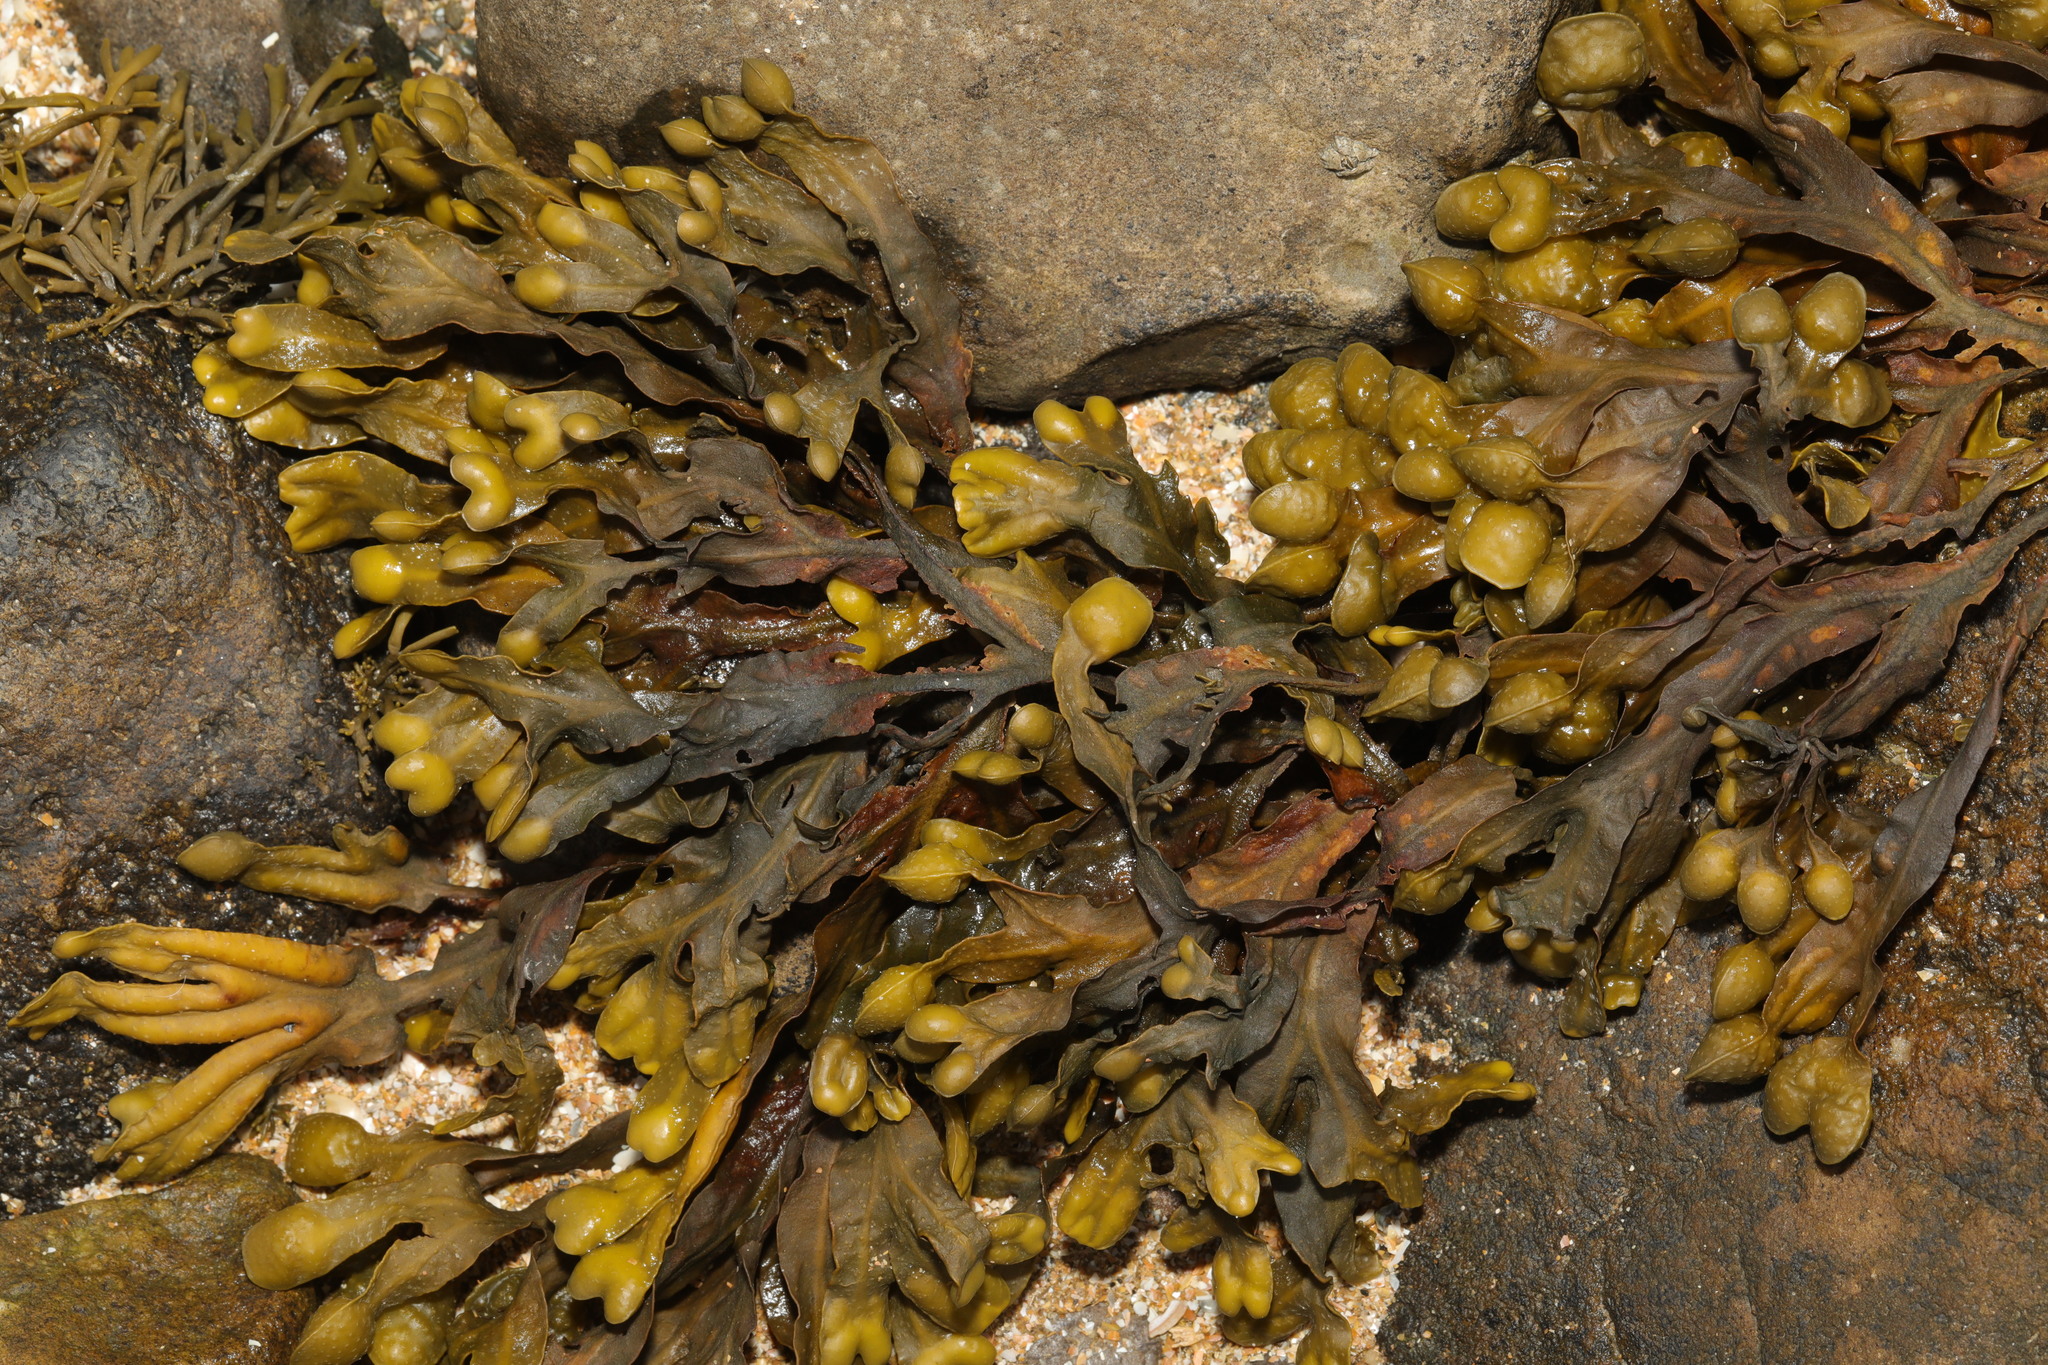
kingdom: Chromista
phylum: Ochrophyta
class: Phaeophyceae
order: Fucales
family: Fucaceae
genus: Fucus
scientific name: Fucus vesiculosus
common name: Bladder wrack
